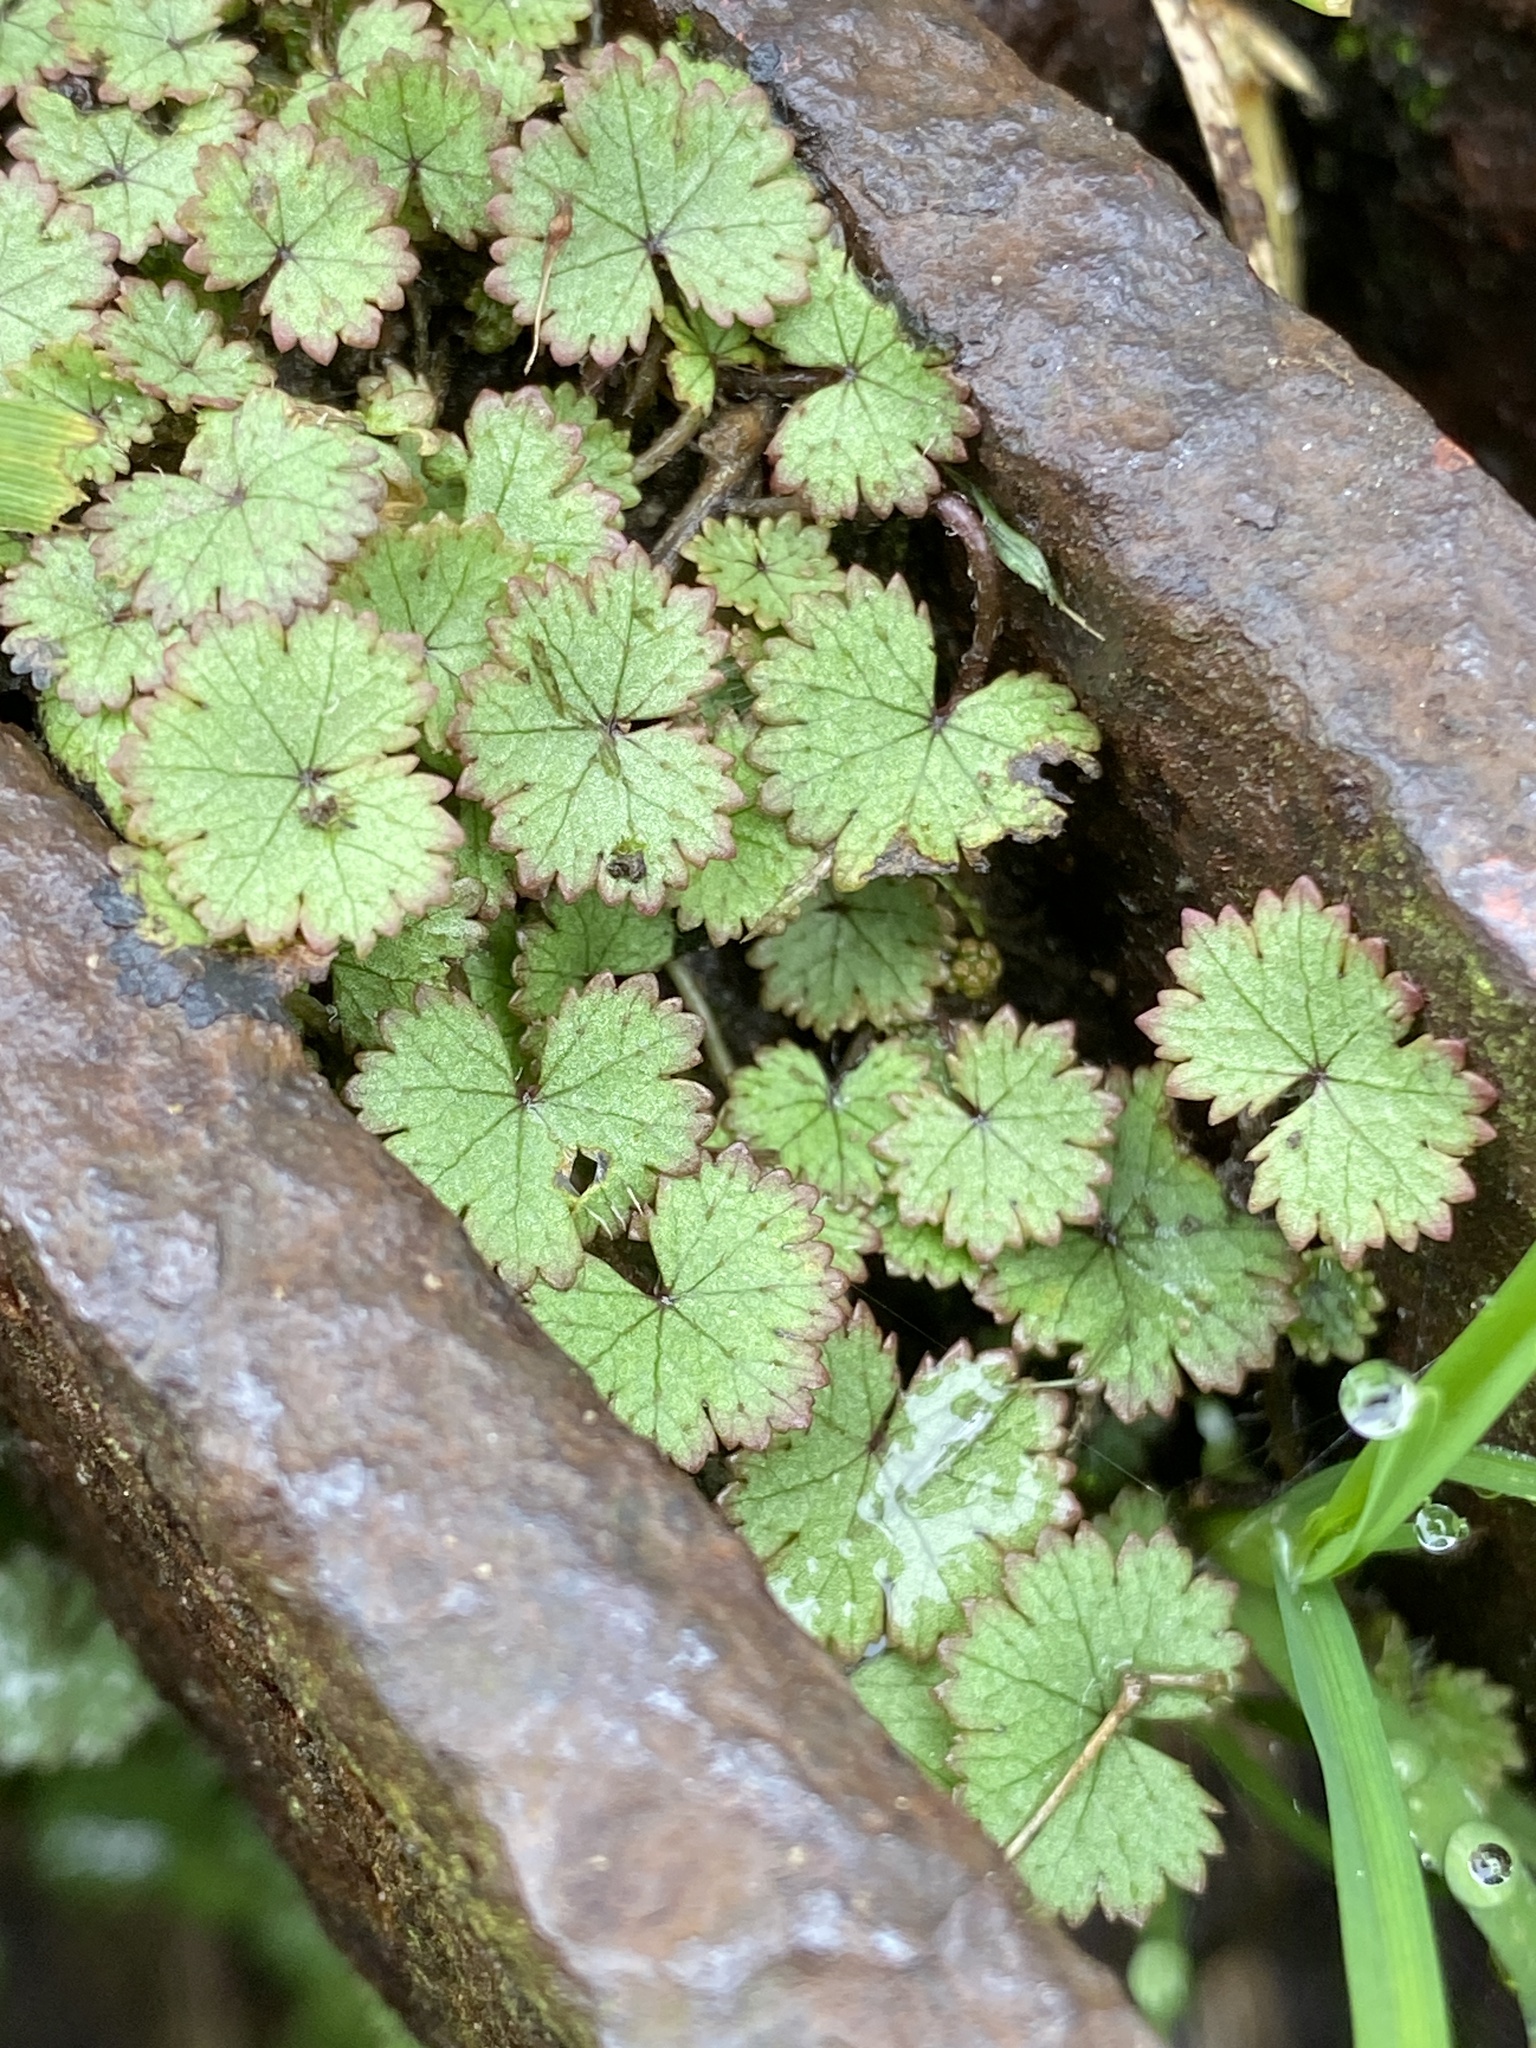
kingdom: Plantae
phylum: Tracheophyta
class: Magnoliopsida
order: Apiales
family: Araliaceae
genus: Hydrocotyle
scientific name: Hydrocotyle moschata
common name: Hairy pennywort
